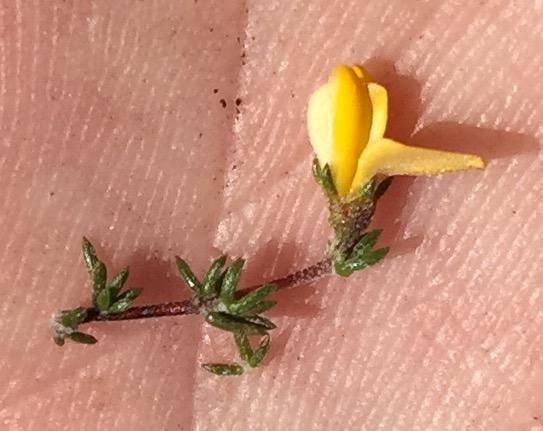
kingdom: Plantae
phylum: Tracheophyta
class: Magnoliopsida
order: Fabales
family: Fabaceae
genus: Aspalathus
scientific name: Aspalathus rubens
